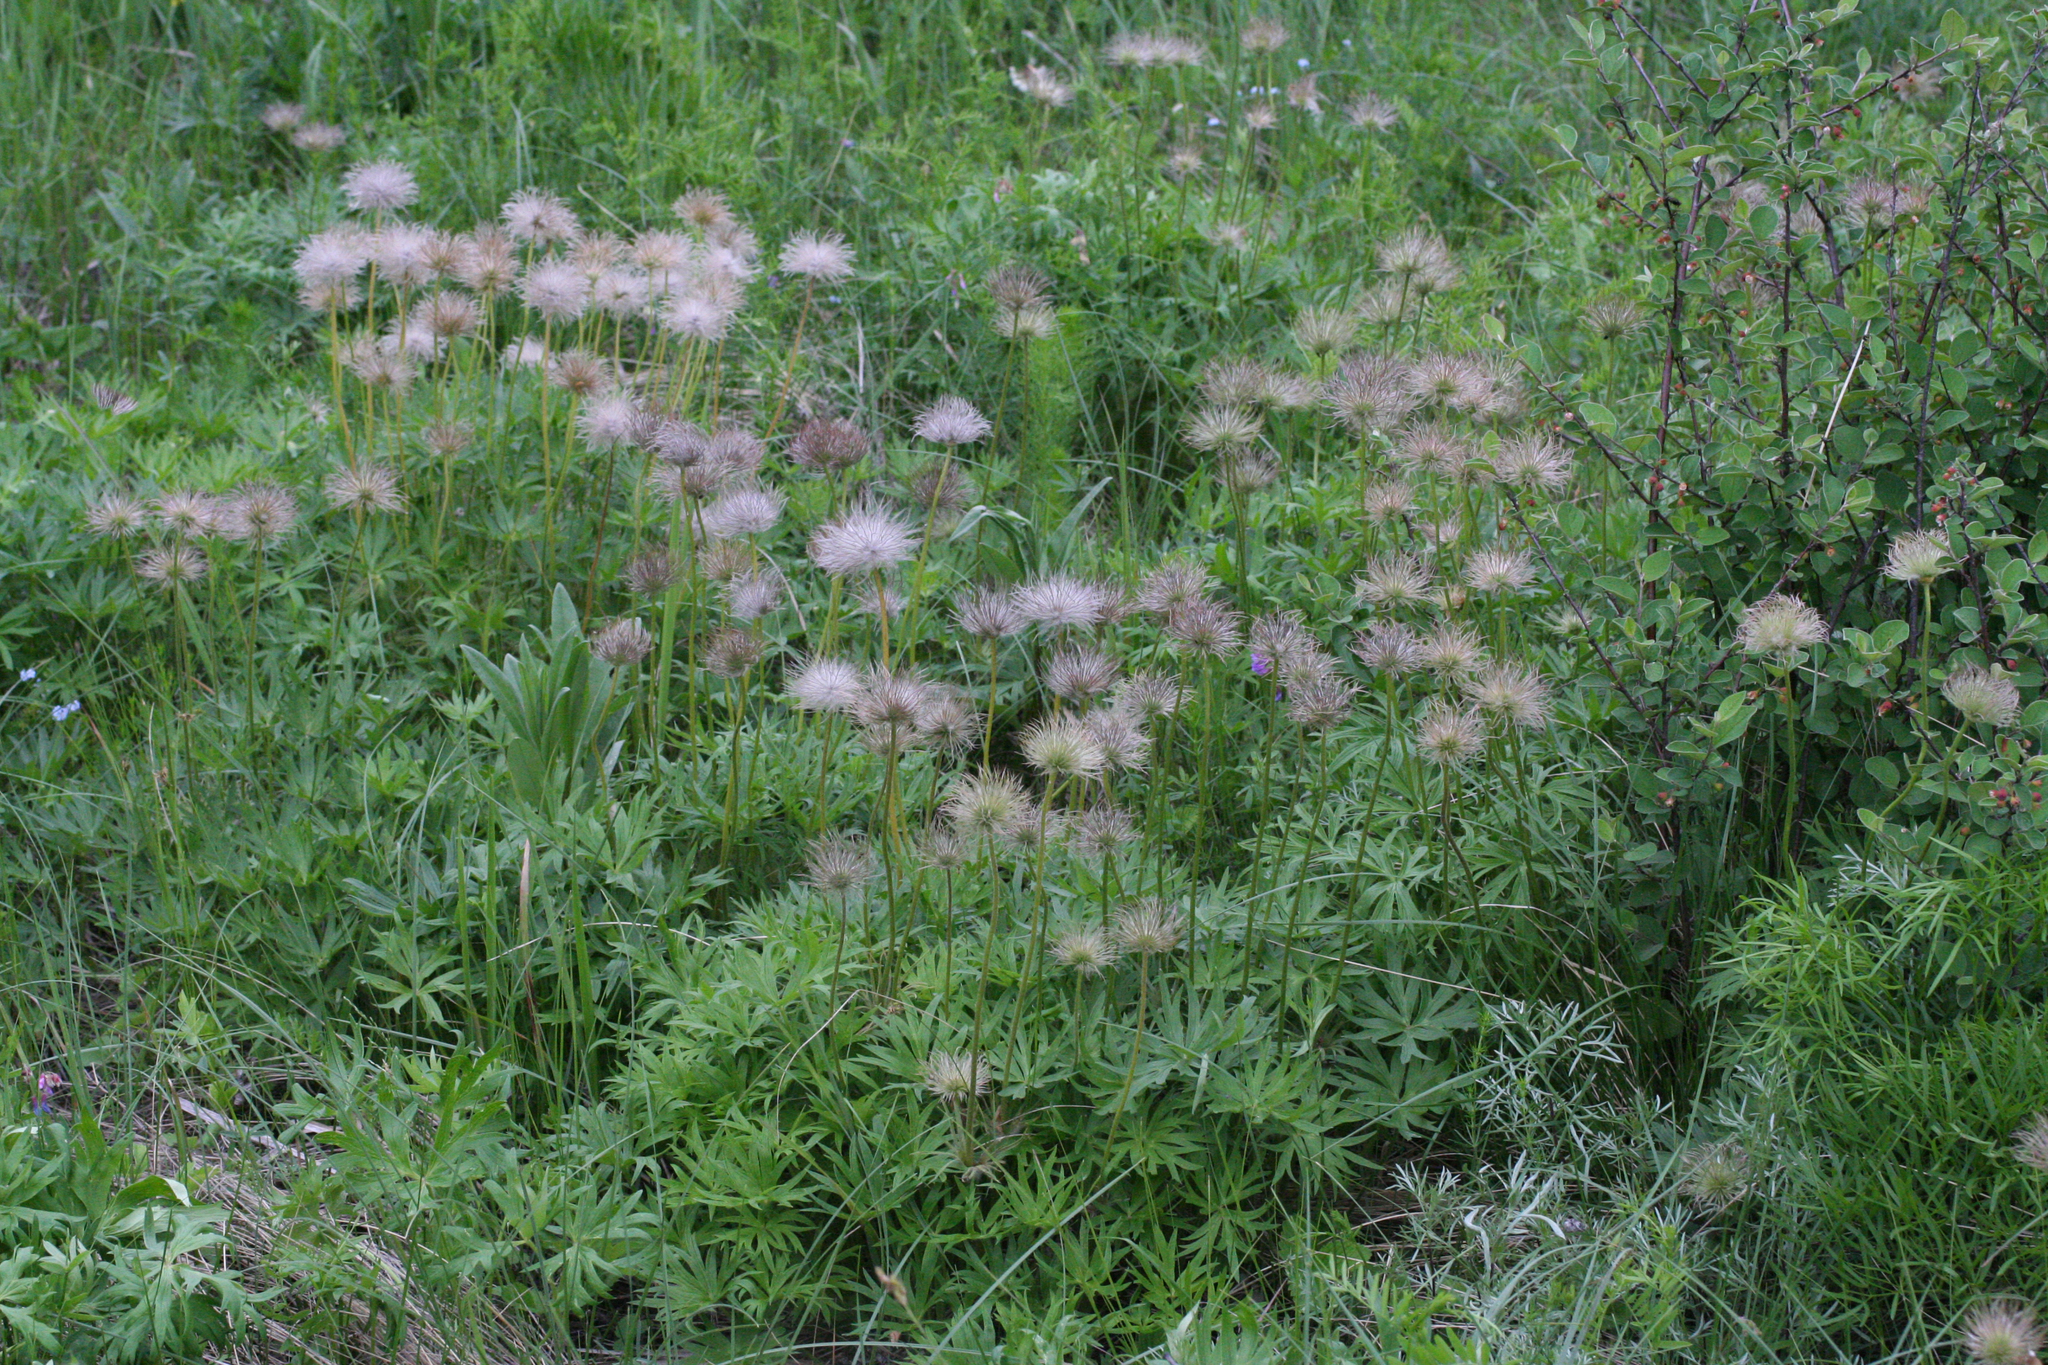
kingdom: Plantae
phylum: Tracheophyta
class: Magnoliopsida
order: Ranunculales
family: Ranunculaceae
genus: Pulsatilla
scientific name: Pulsatilla patens
